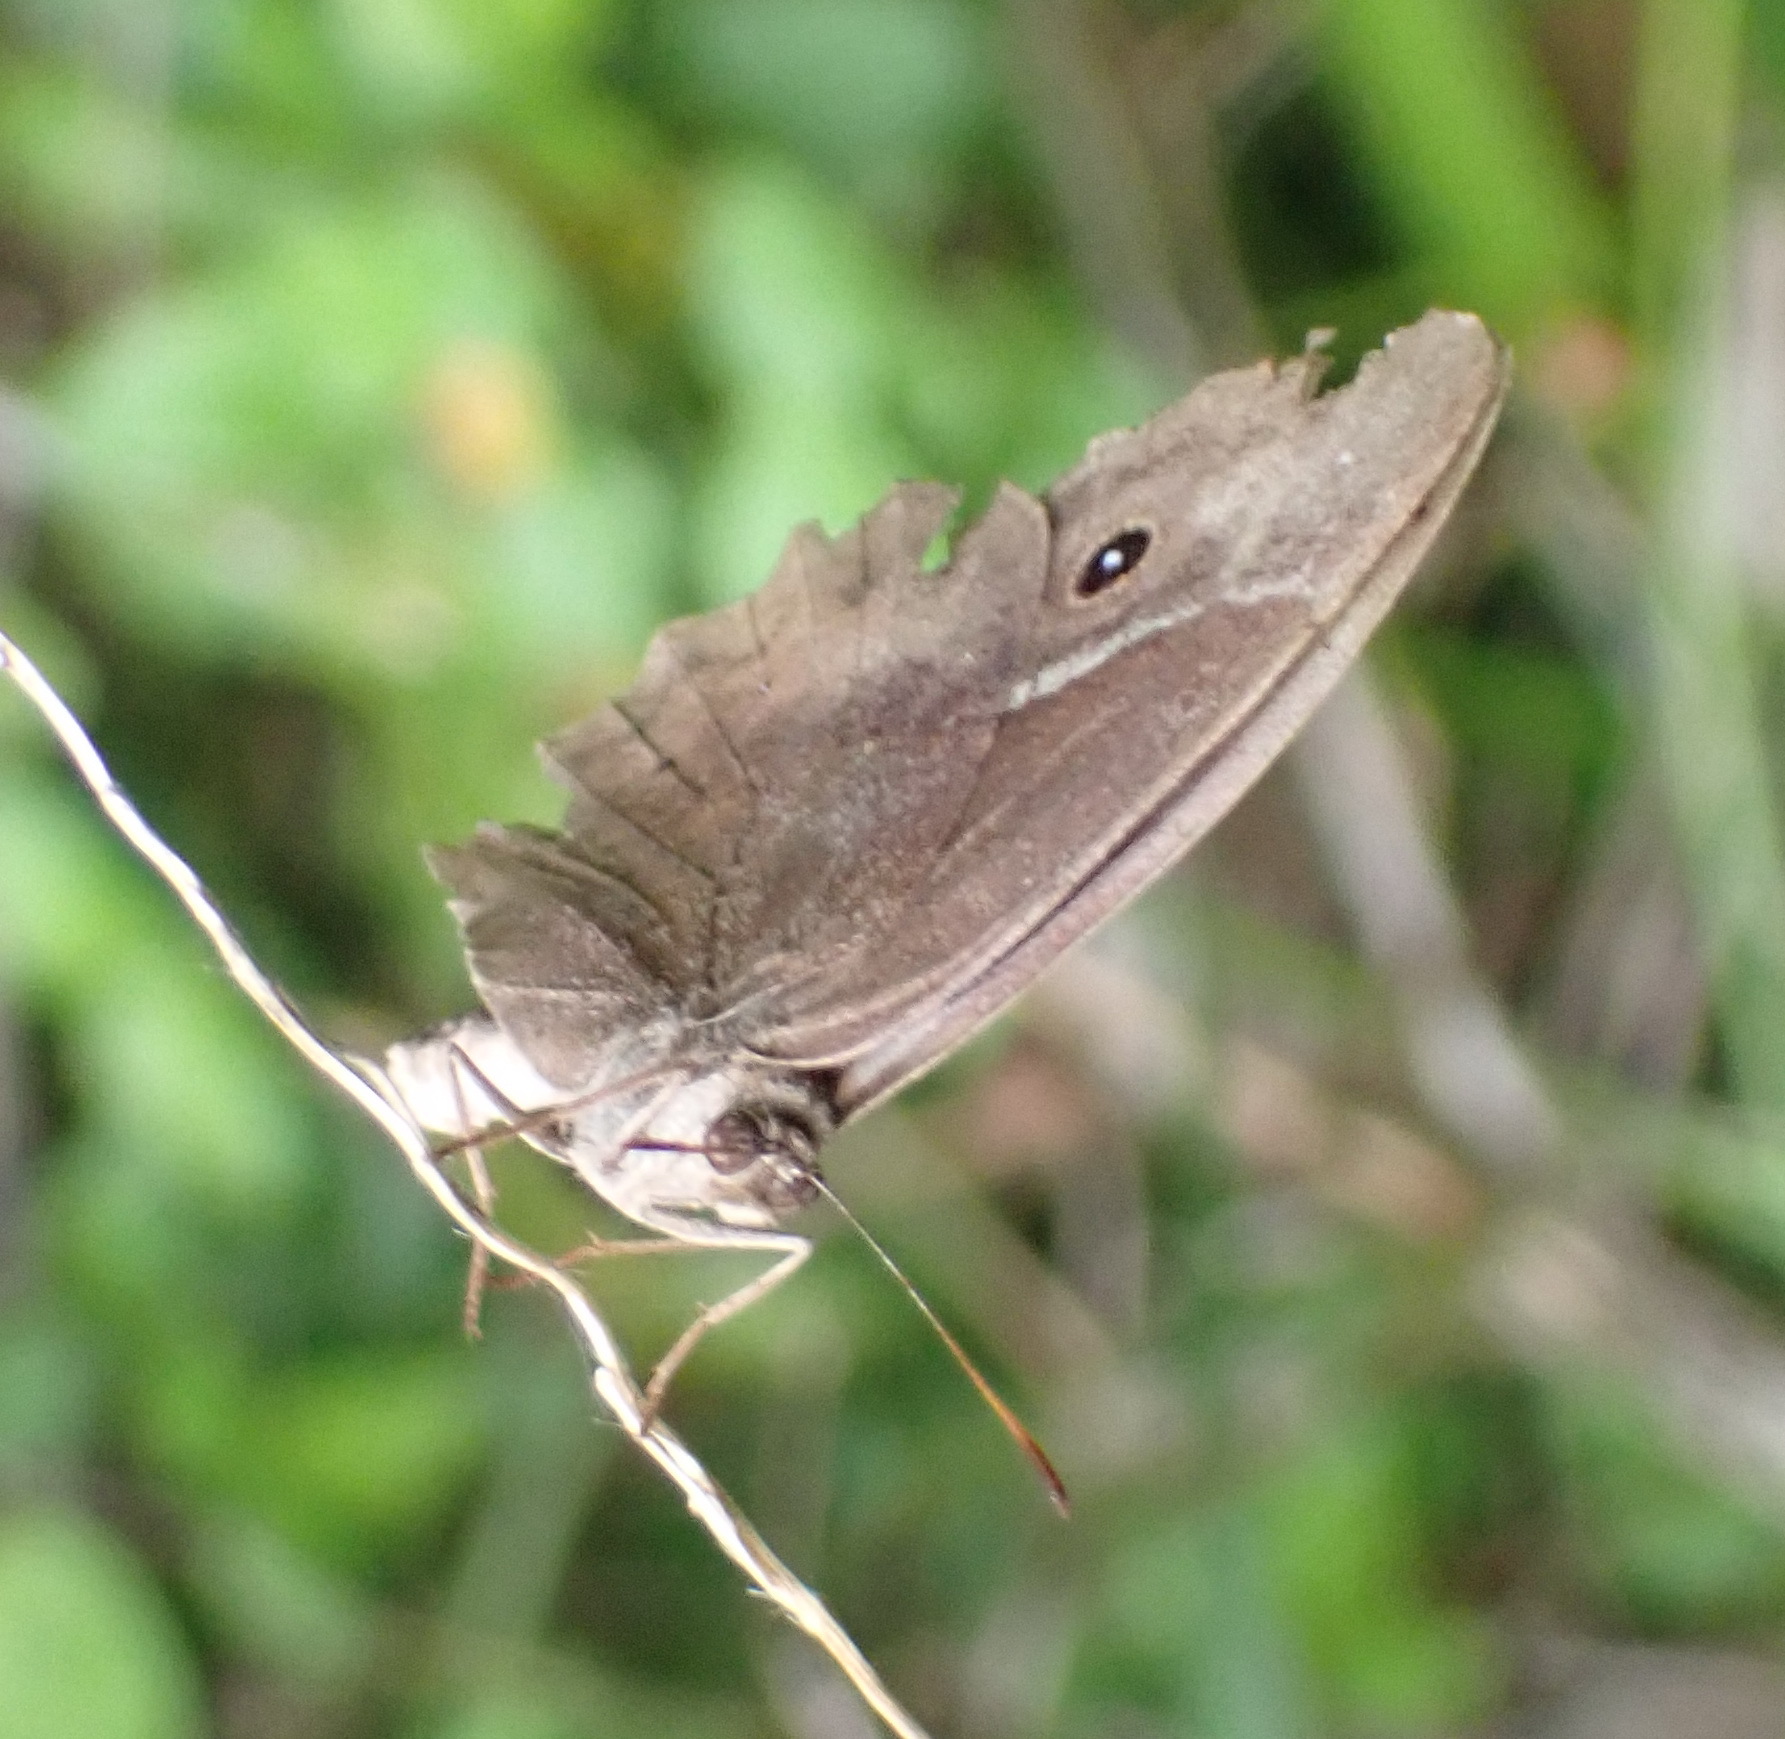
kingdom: Animalia
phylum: Arthropoda
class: Insecta
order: Lepidoptera
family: Nymphalidae
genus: Mycalesis
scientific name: Mycalesis rhacotis
